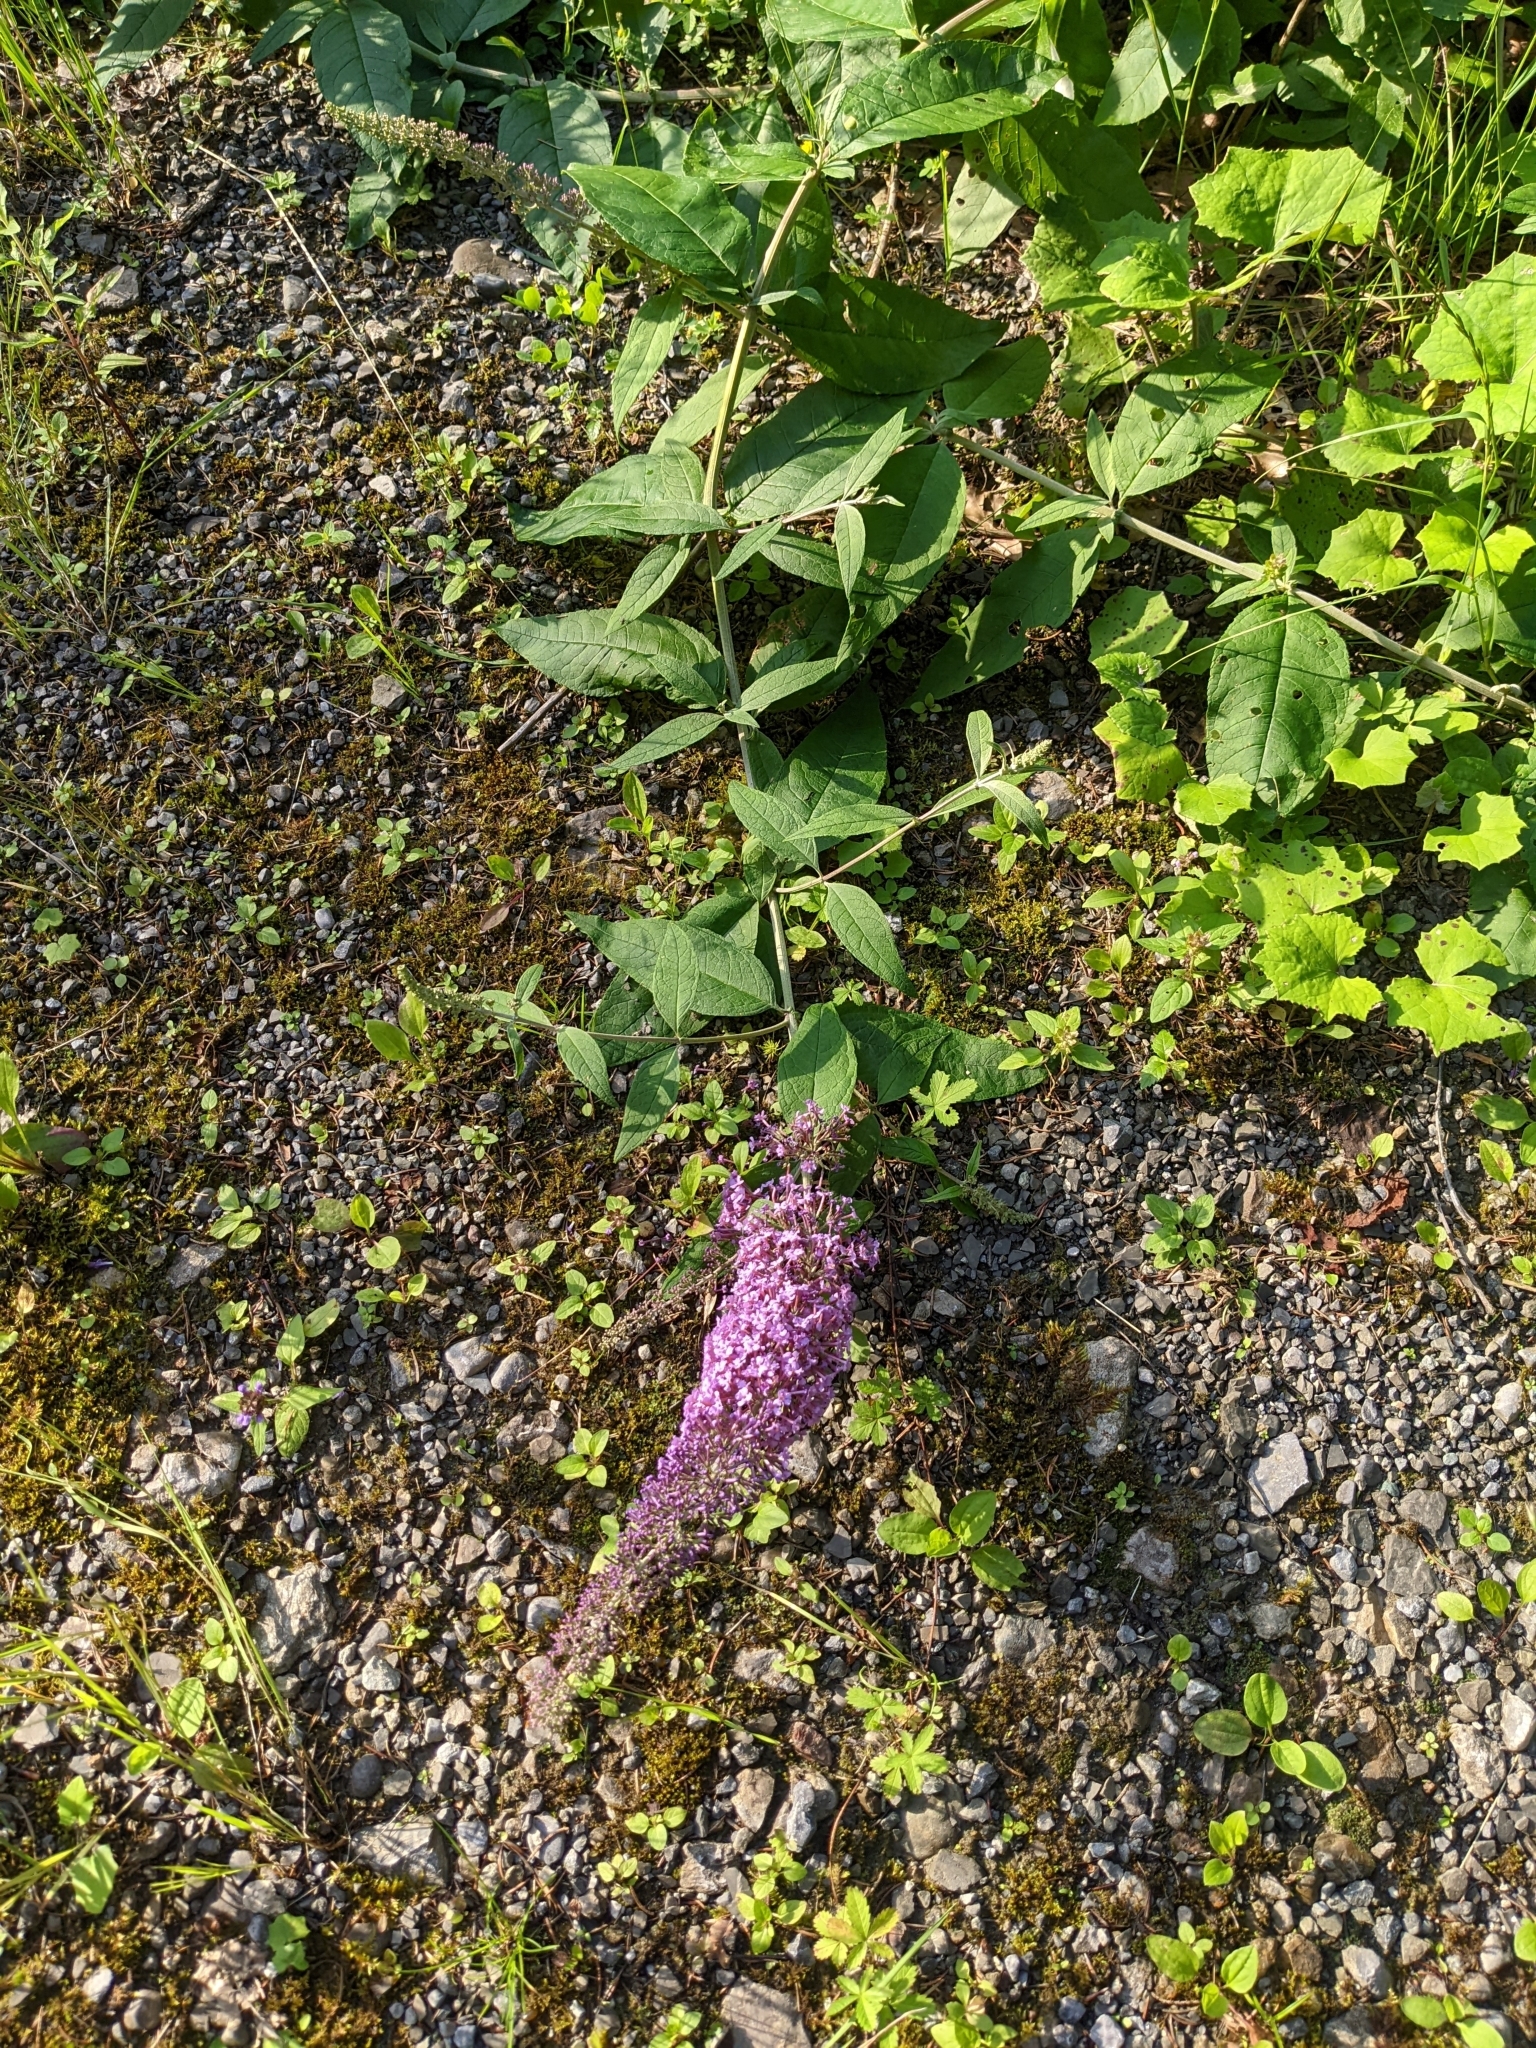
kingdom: Plantae
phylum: Tracheophyta
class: Magnoliopsida
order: Lamiales
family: Scrophulariaceae
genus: Buddleja
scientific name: Buddleja davidii
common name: Butterfly-bush
